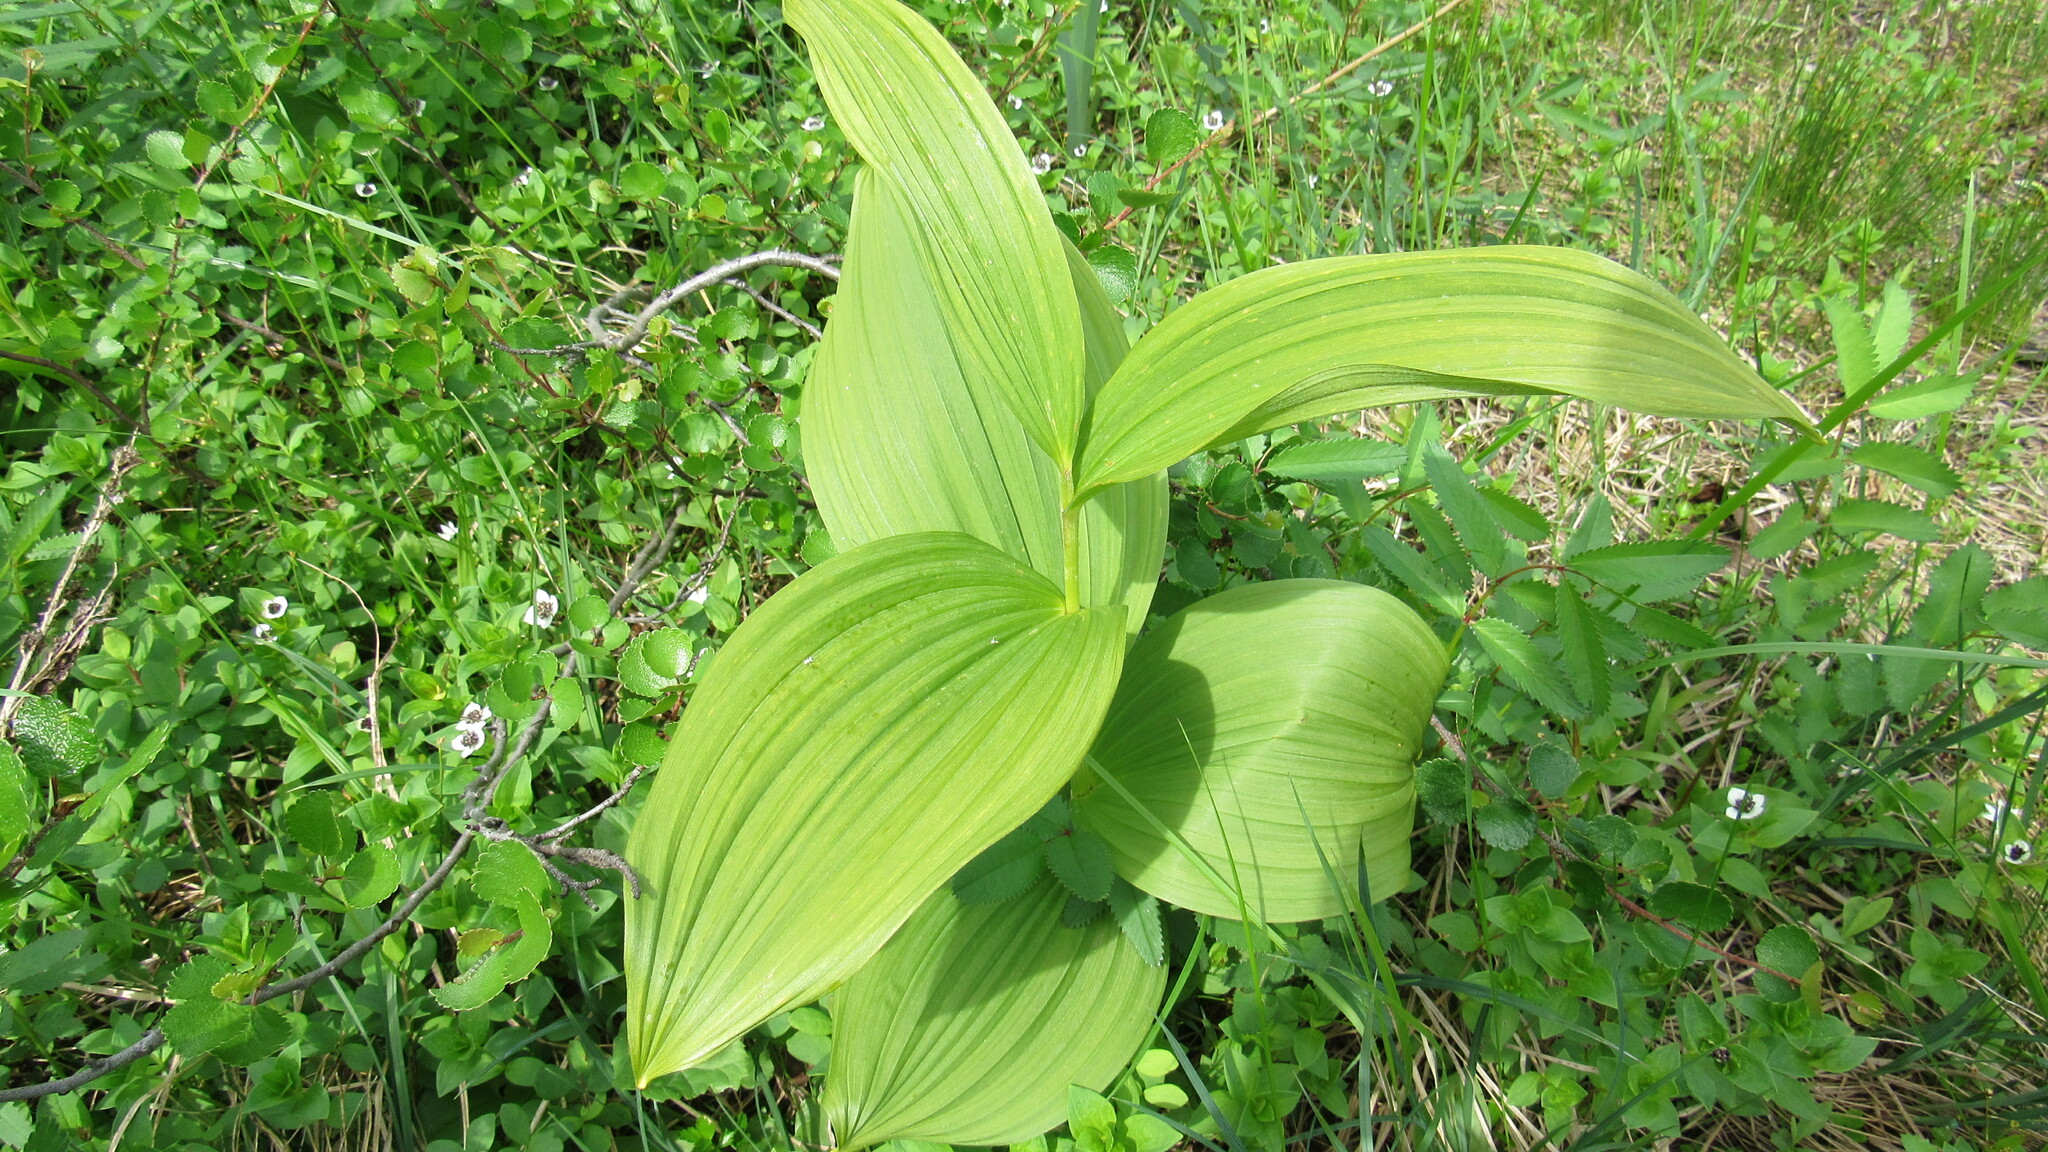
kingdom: Plantae
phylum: Tracheophyta
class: Liliopsida
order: Liliales
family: Melanthiaceae
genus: Veratrum
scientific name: Veratrum oxysepalum
